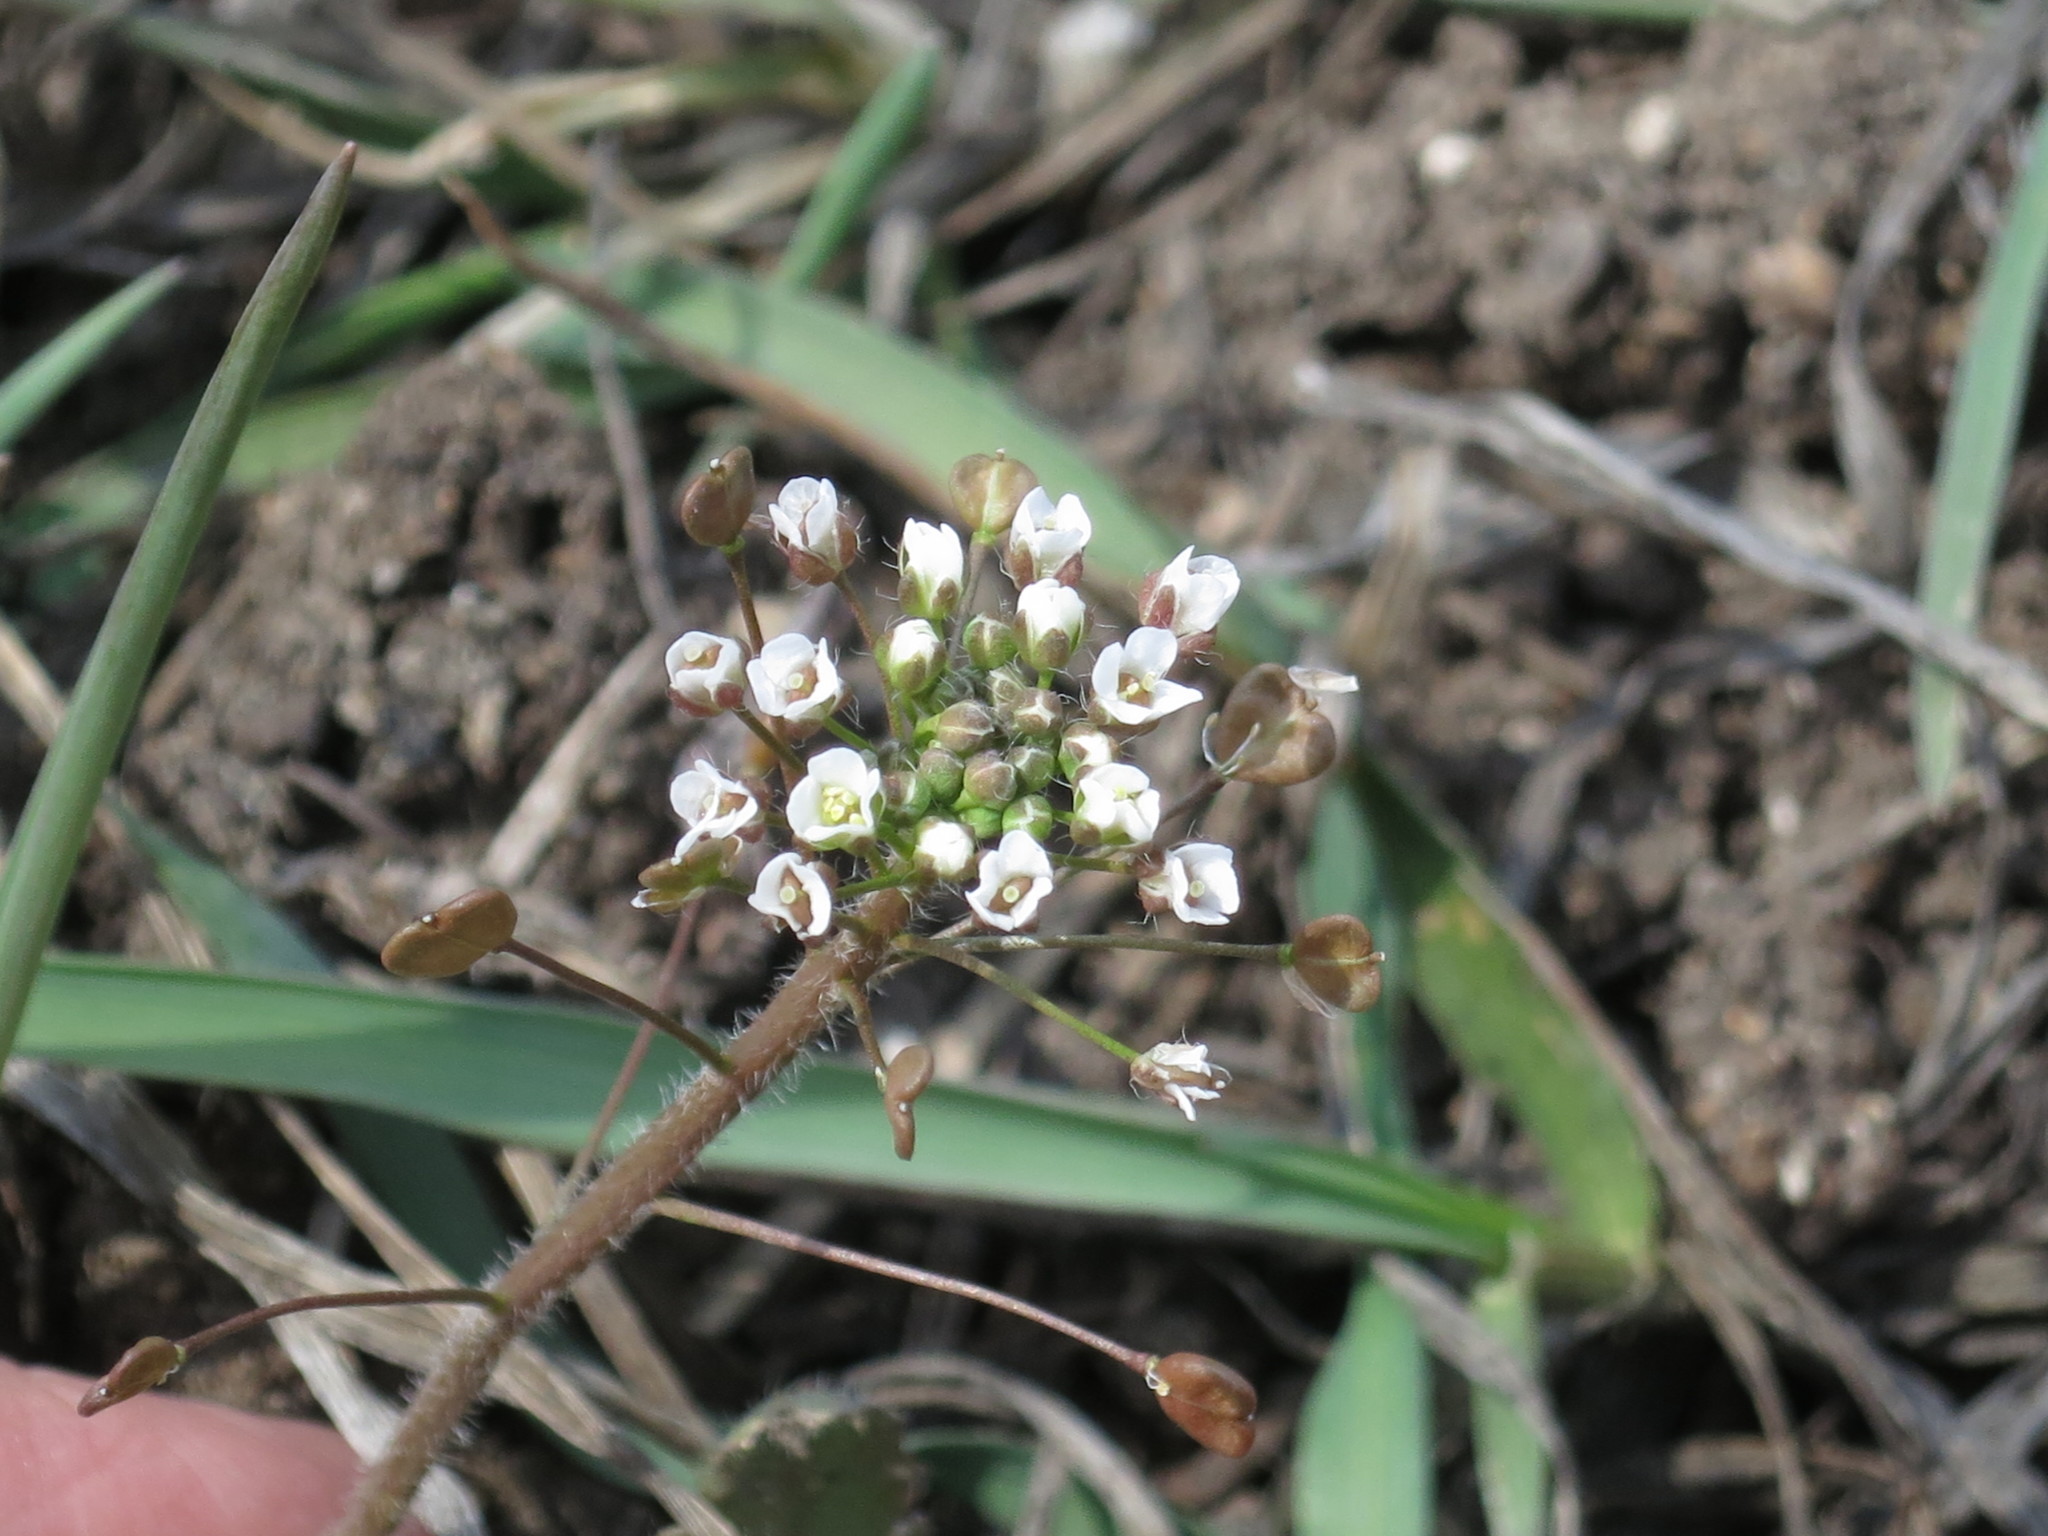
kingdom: Plantae
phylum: Tracheophyta
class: Magnoliopsida
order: Brassicales
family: Brassicaceae
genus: Capsella
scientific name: Capsella bursa-pastoris
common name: Shepherd's purse
